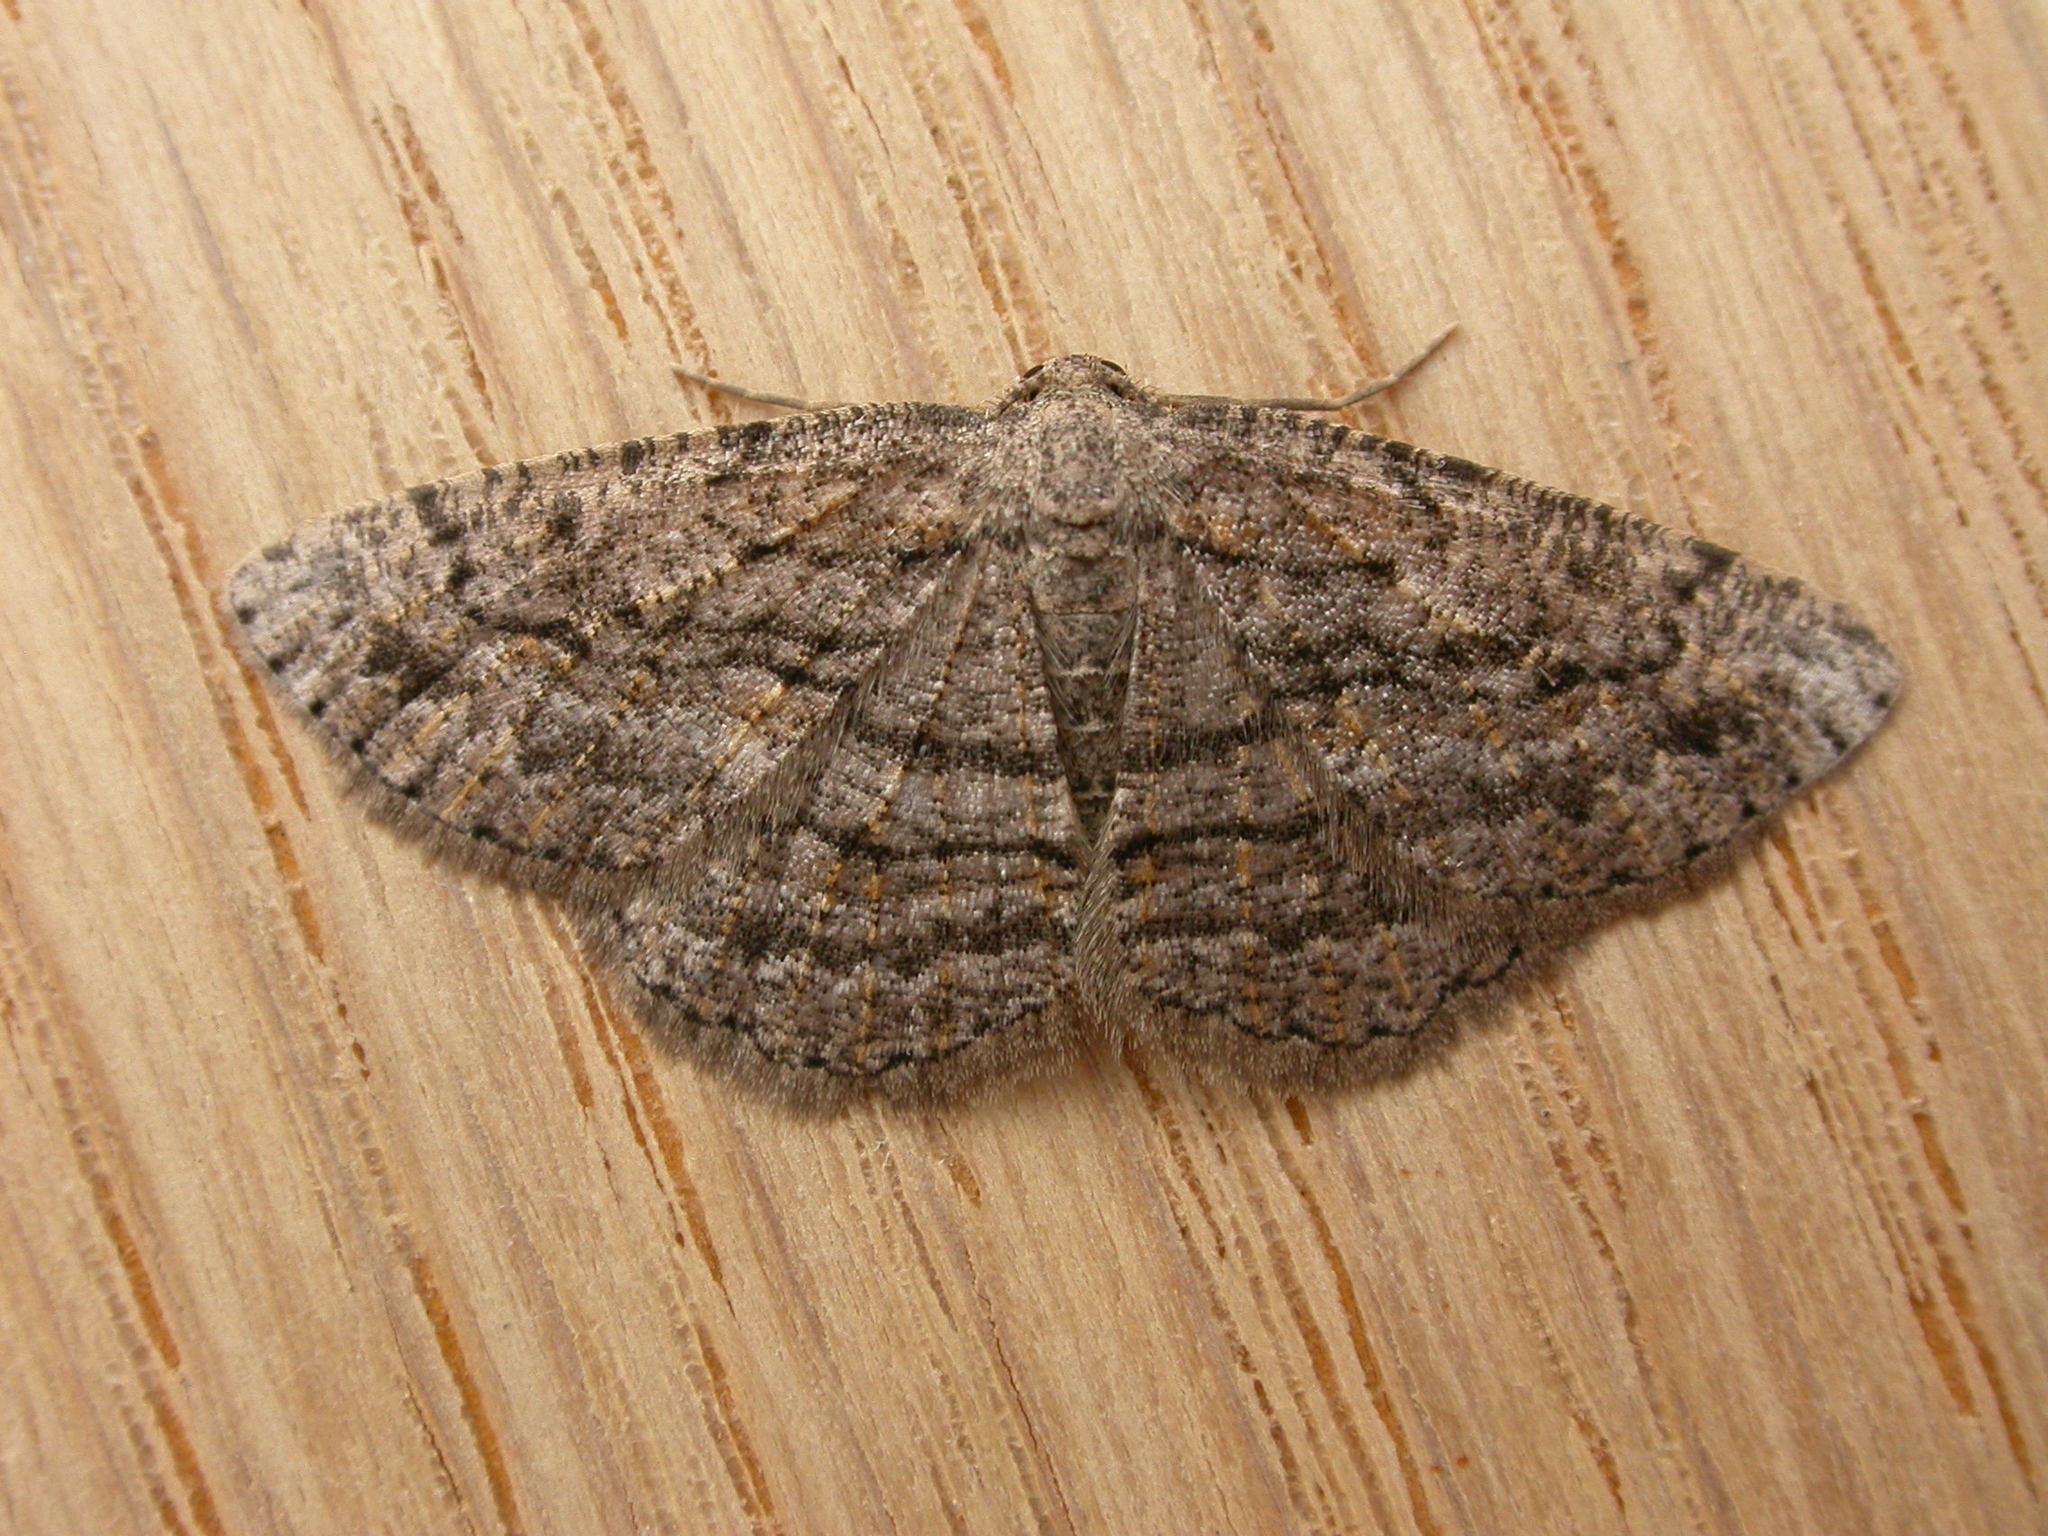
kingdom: Animalia
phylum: Arthropoda
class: Insecta
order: Lepidoptera
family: Geometridae
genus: Zermizinga
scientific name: Zermizinga sinuata
